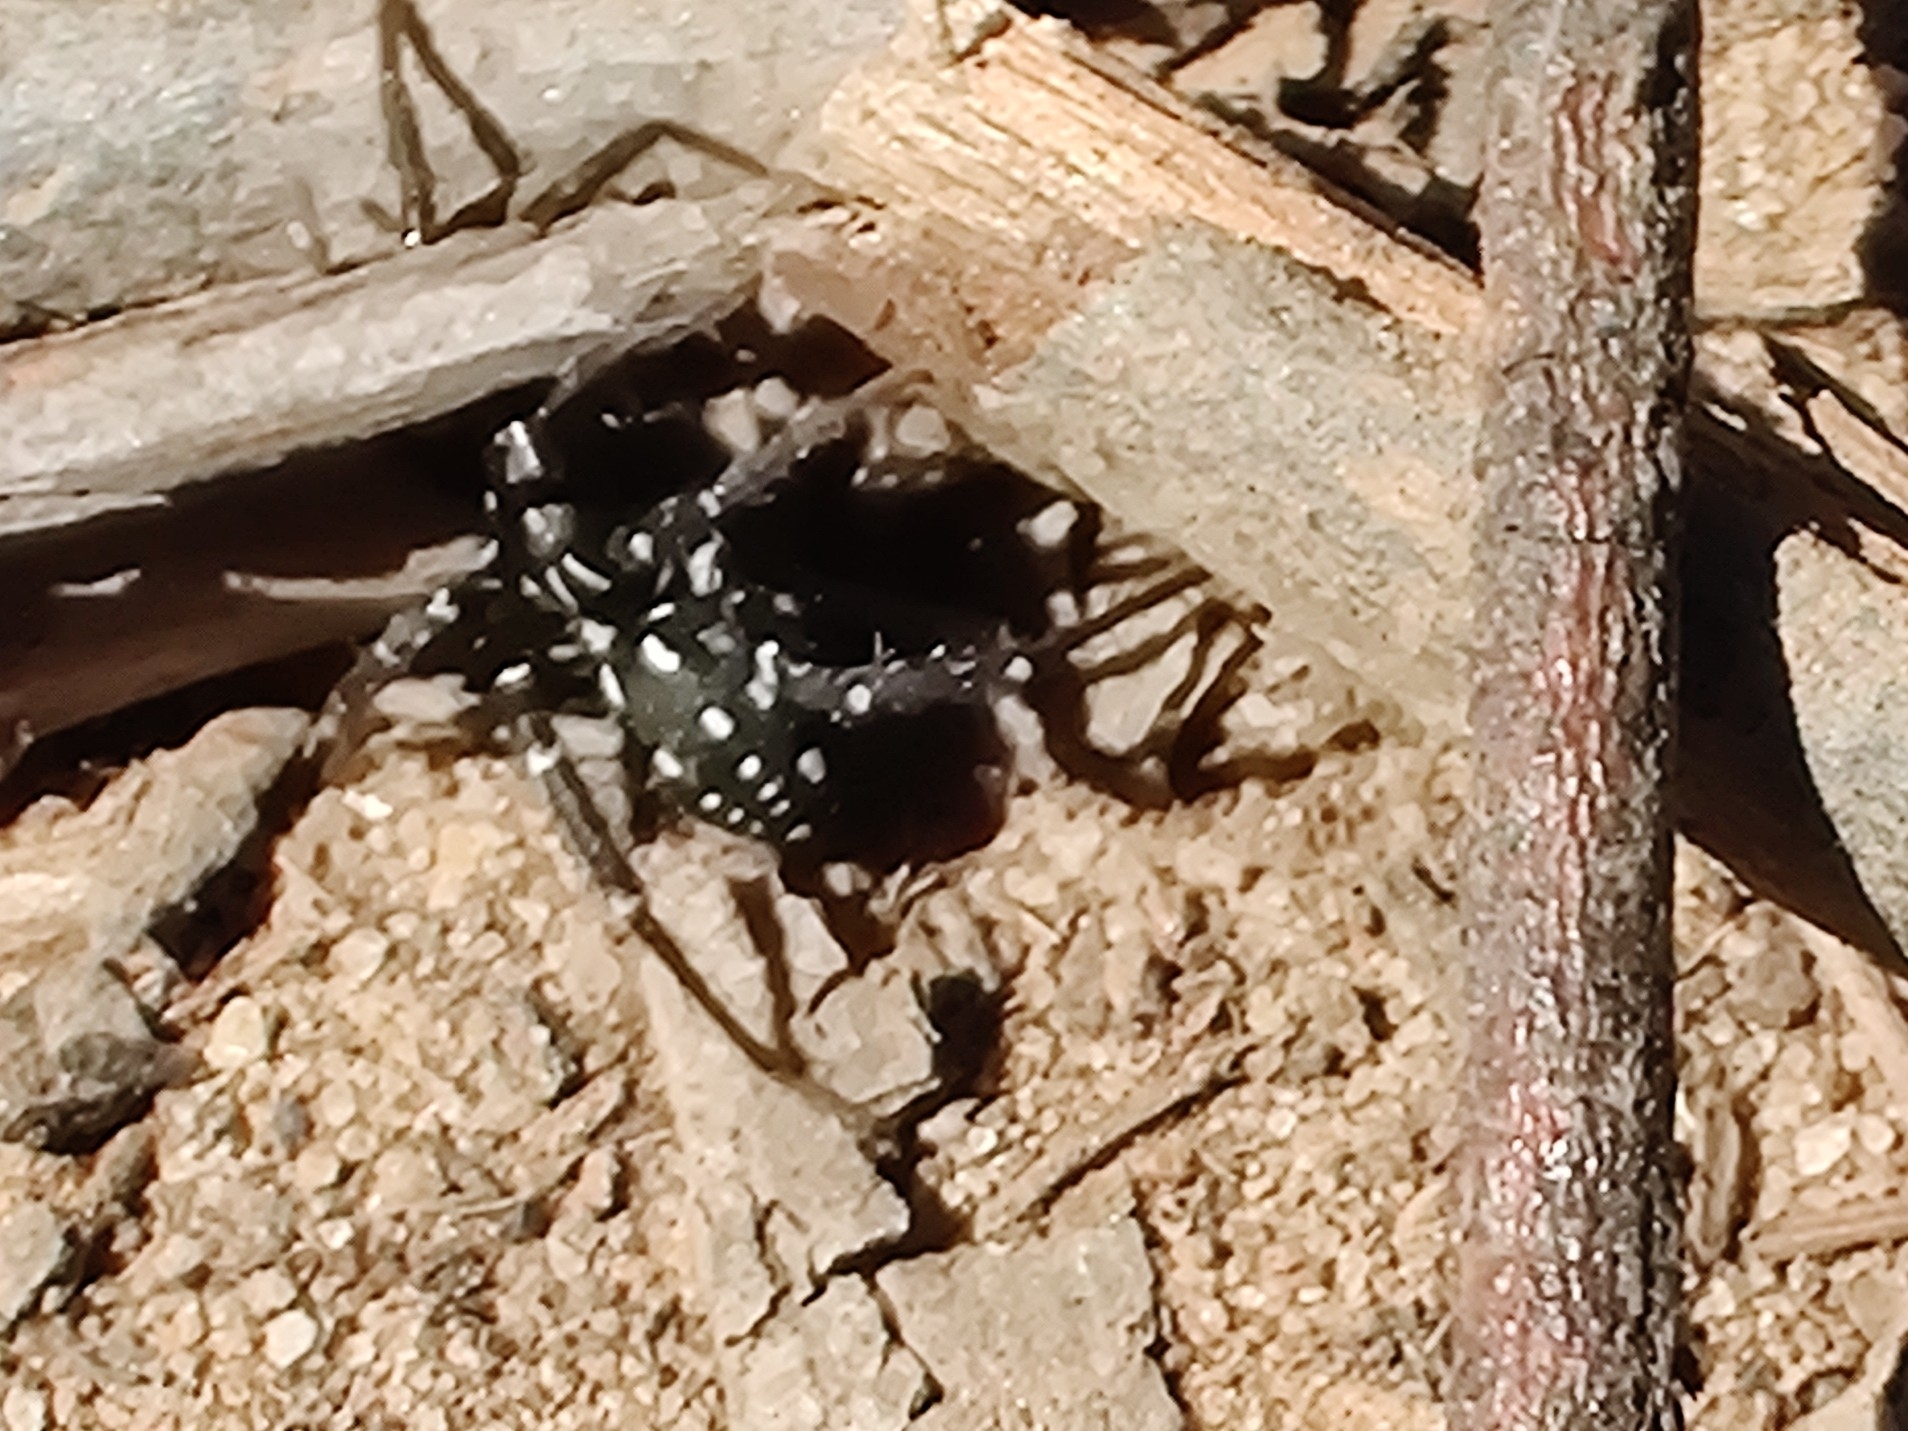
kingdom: Animalia
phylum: Arthropoda
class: Arachnida
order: Araneae
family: Corinnidae
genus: Nyssus
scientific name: Nyssus albopunctatus
